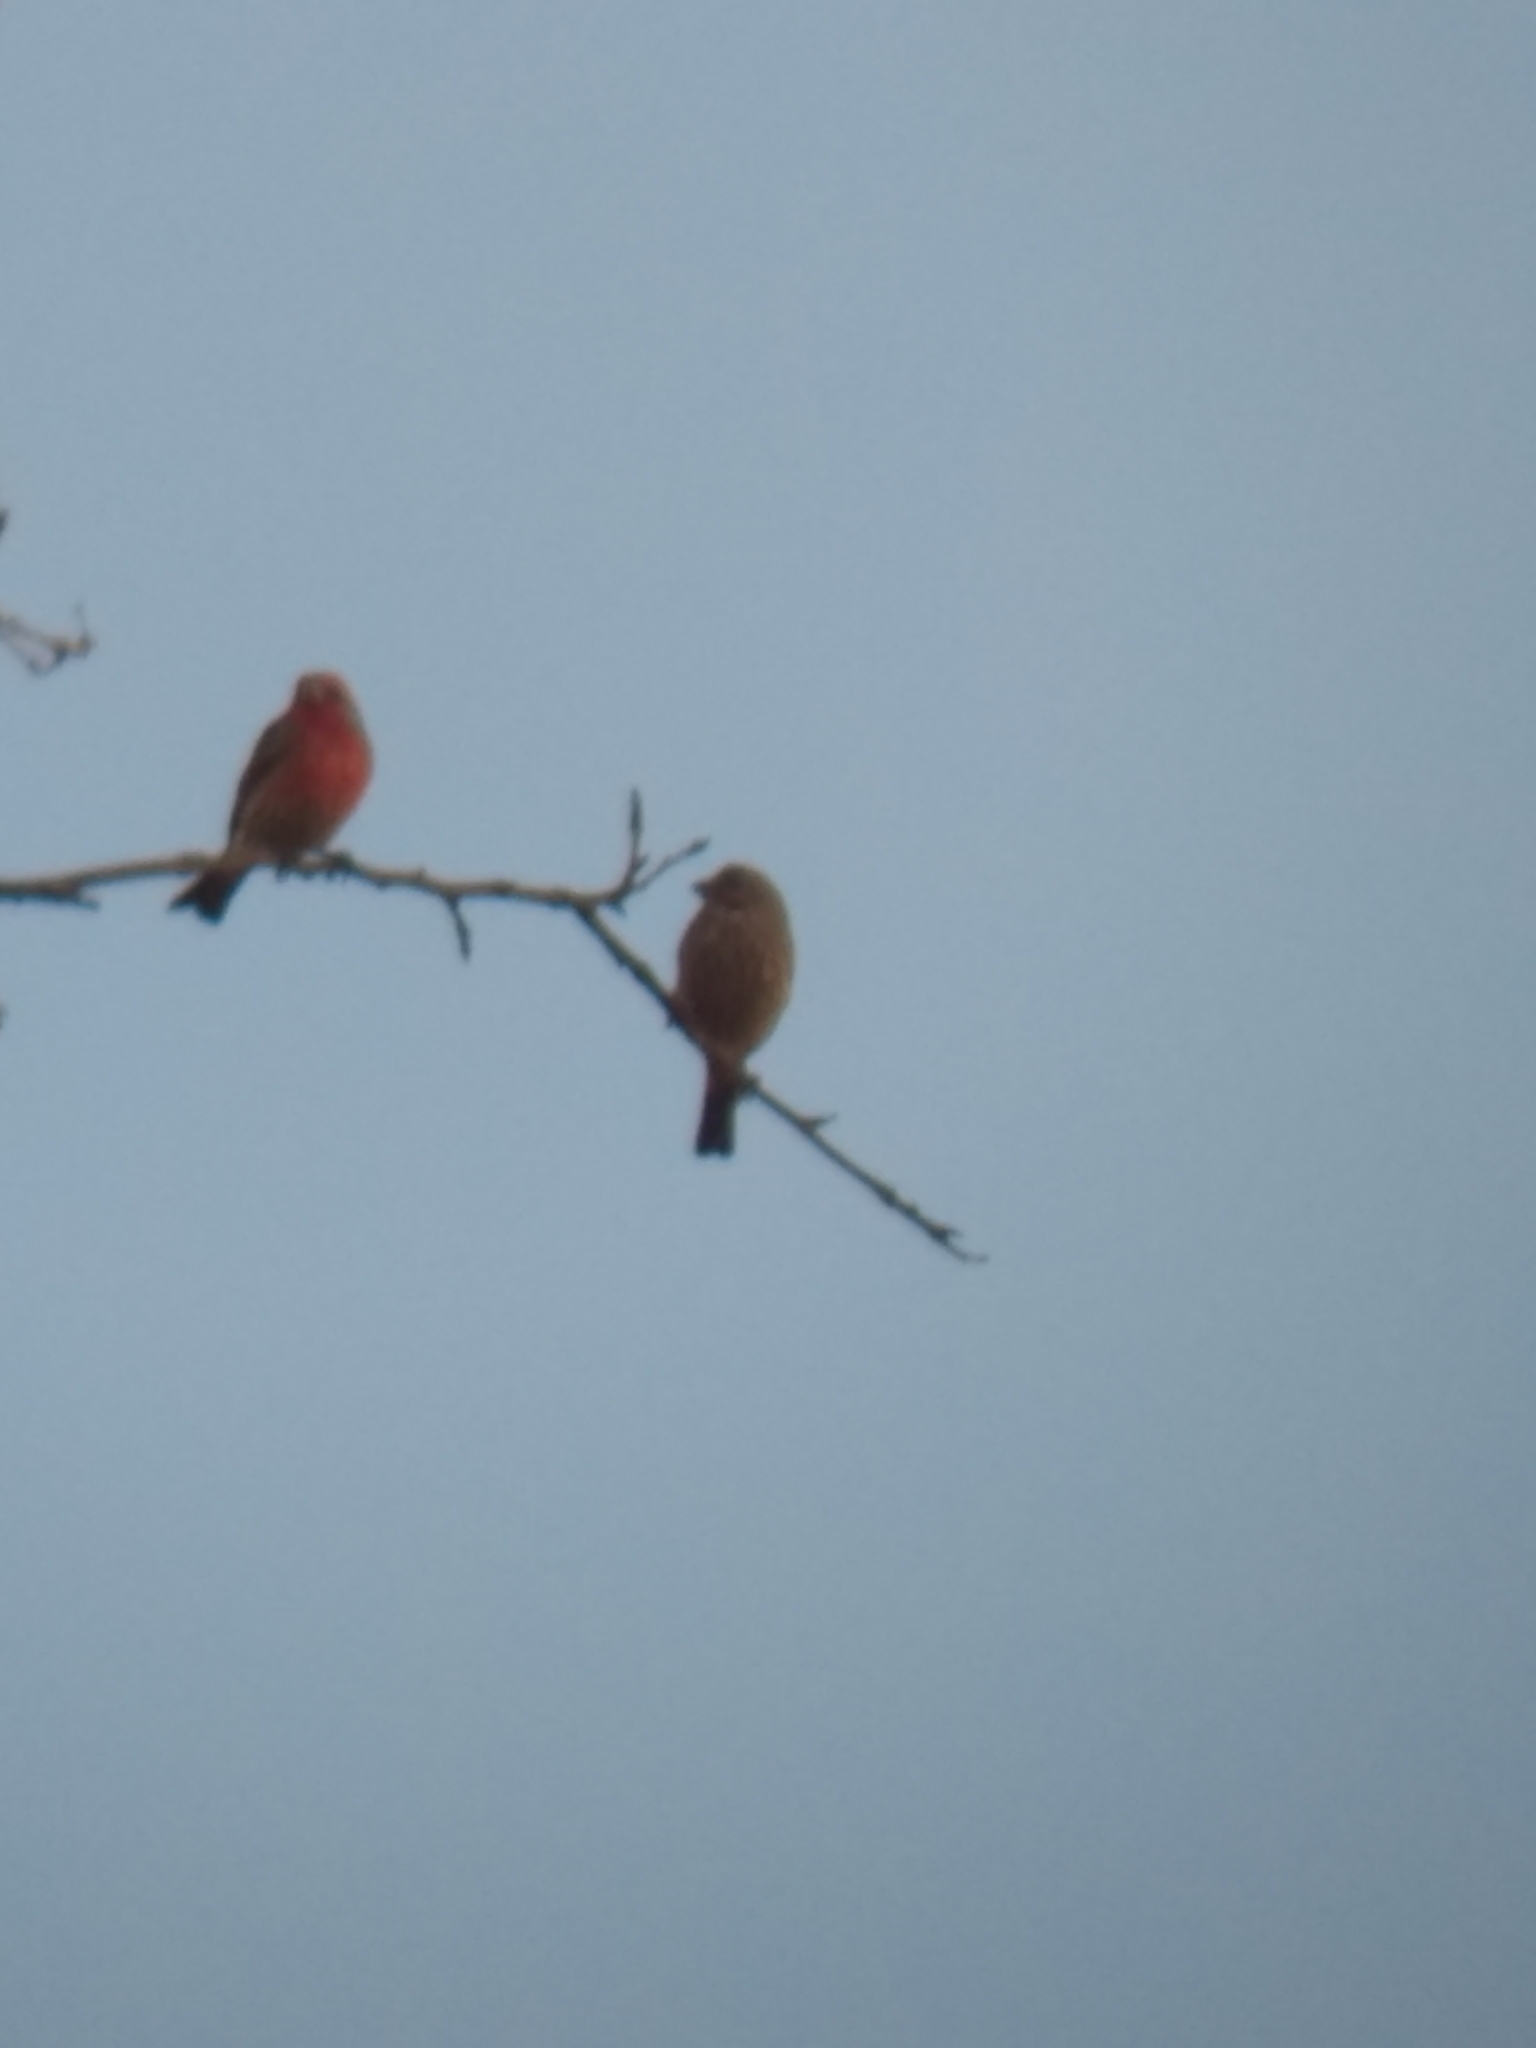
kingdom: Animalia
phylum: Chordata
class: Aves
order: Passeriformes
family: Fringillidae
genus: Haemorhous
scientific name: Haemorhous mexicanus
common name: House finch
